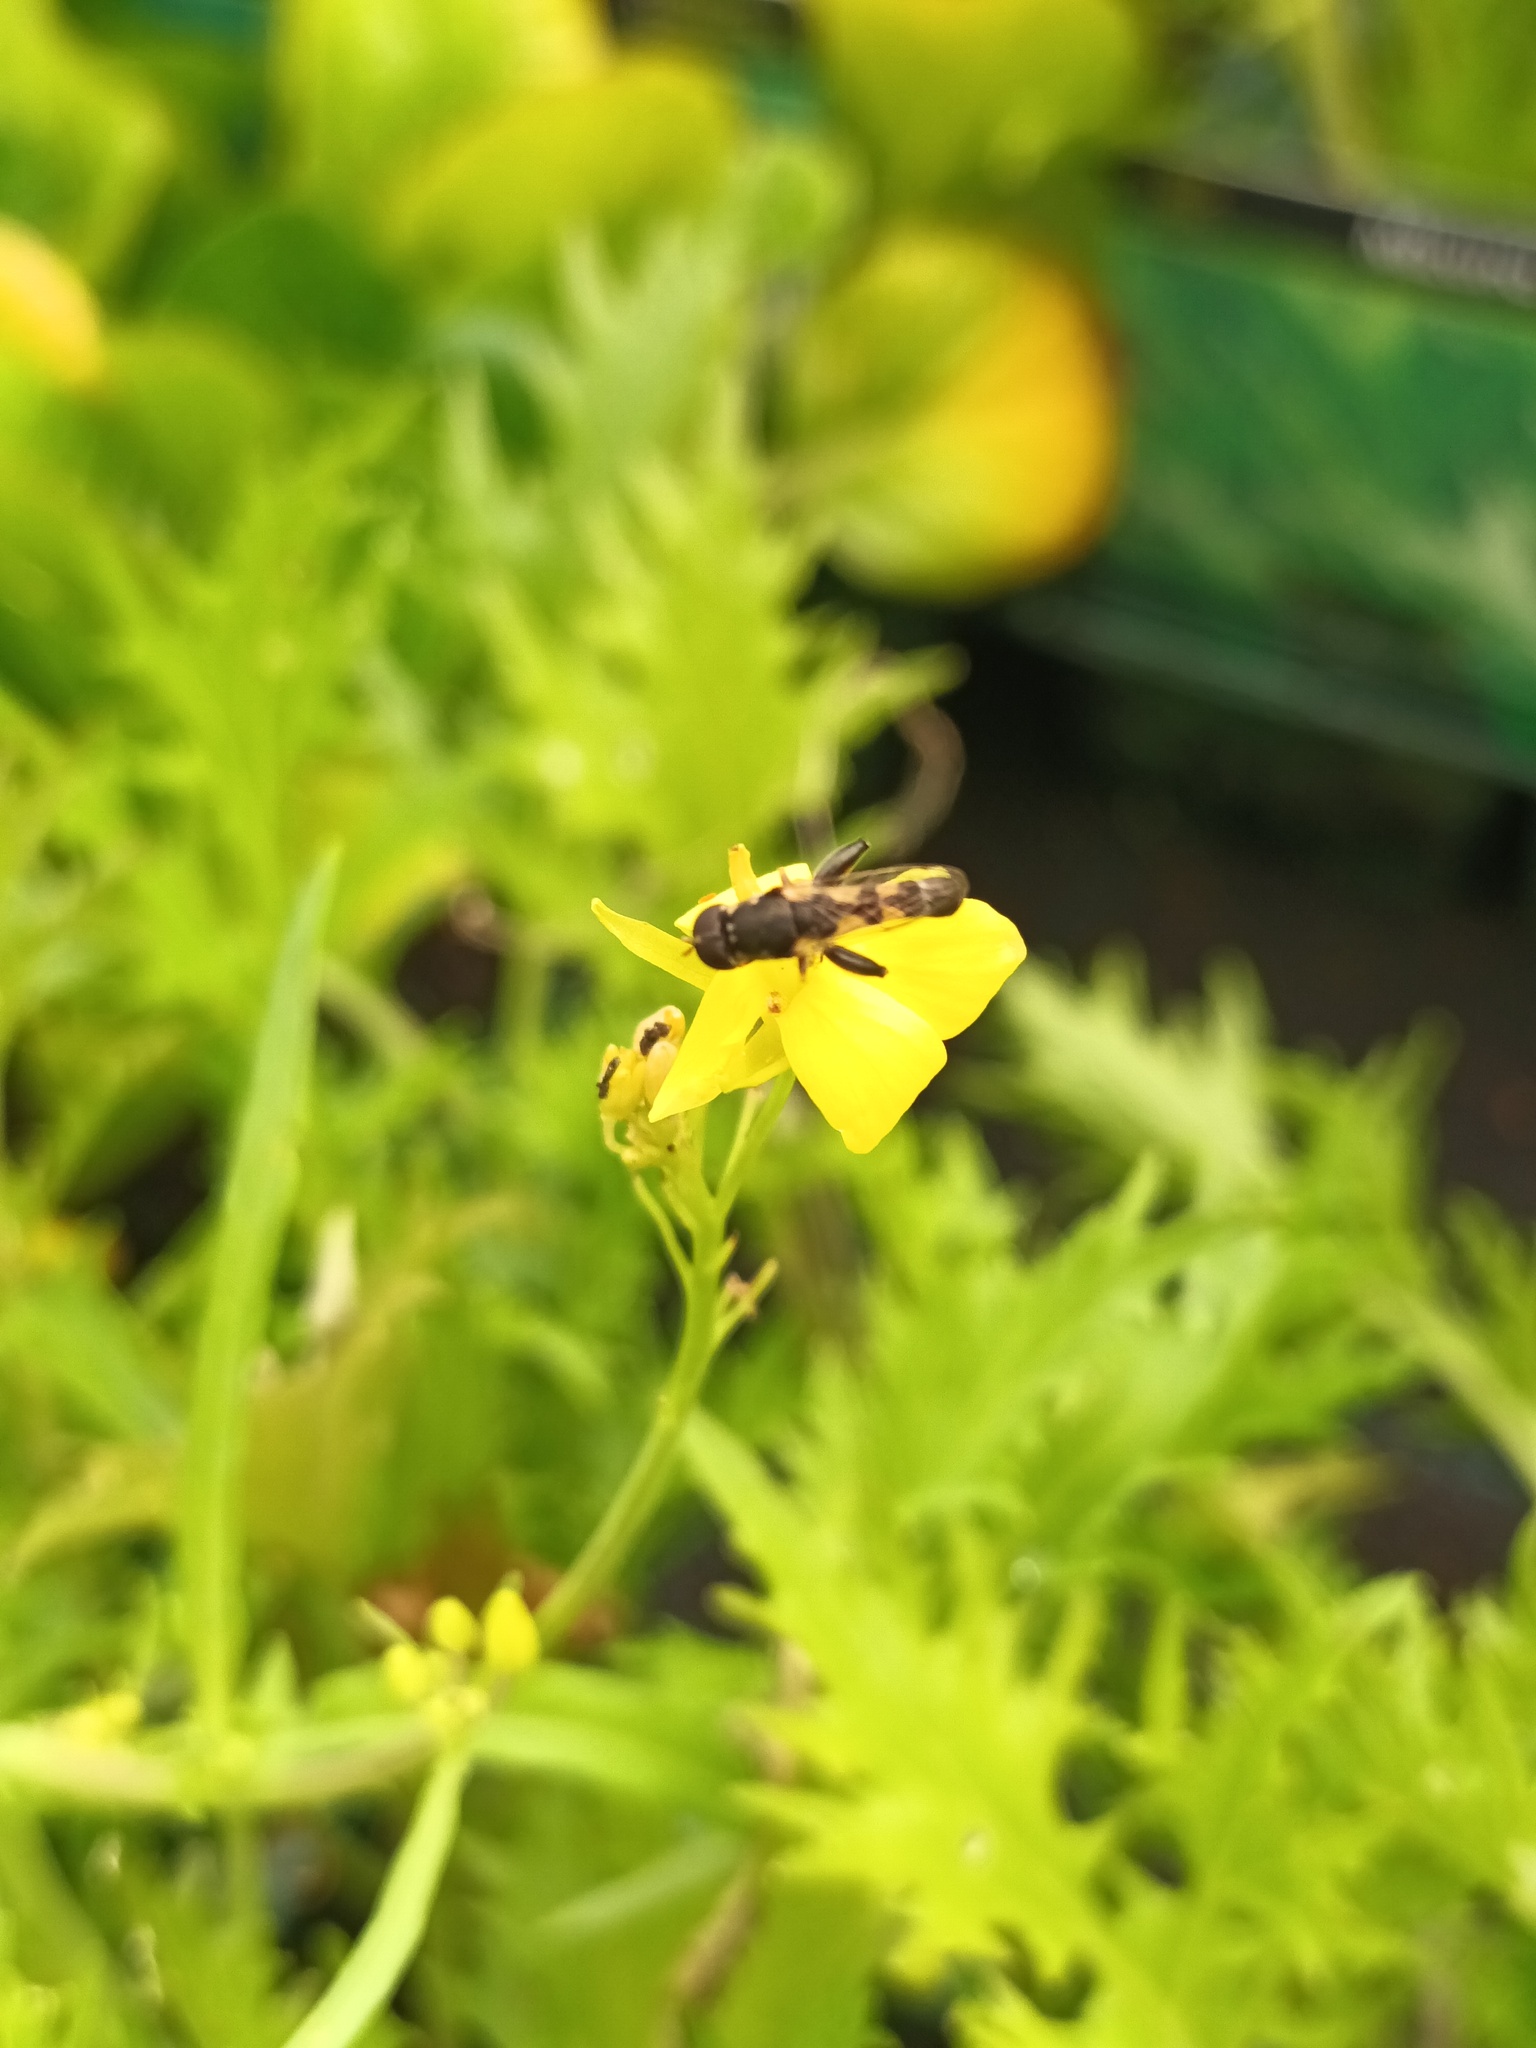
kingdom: Animalia
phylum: Arthropoda
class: Insecta
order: Diptera
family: Syrphidae
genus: Syritta
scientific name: Syritta pipiens
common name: Hover fly
